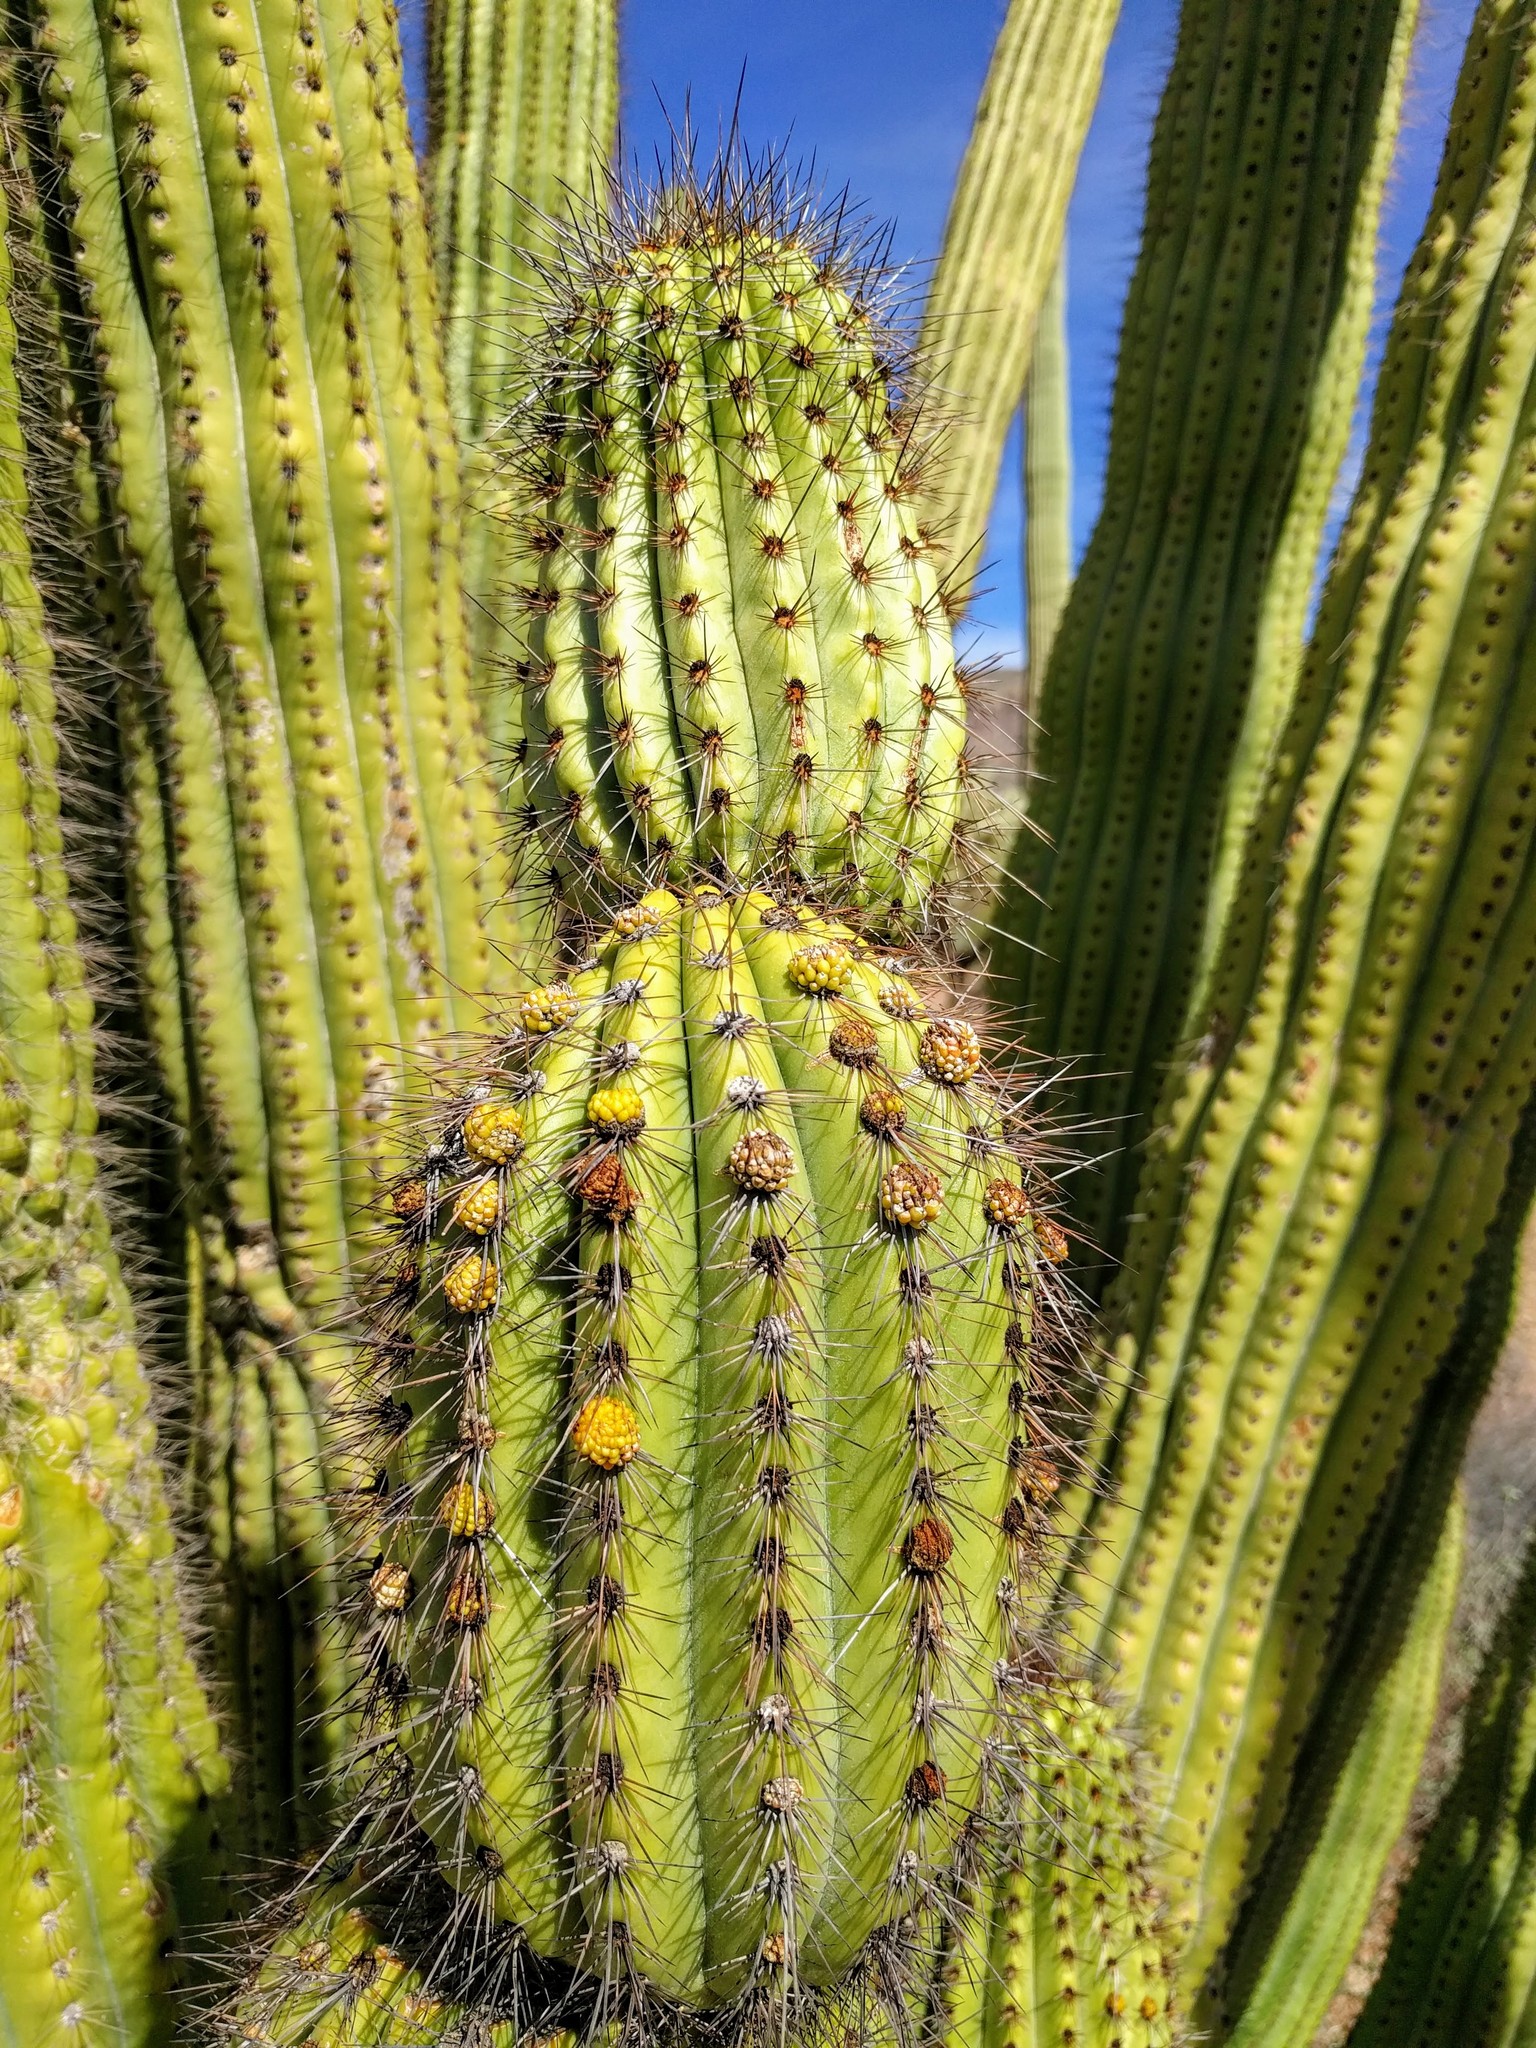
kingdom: Plantae
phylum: Tracheophyta
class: Magnoliopsida
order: Caryophyllales
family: Cactaceae
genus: Stenocereus
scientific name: Stenocereus thurberi
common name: Organ pipe cactus
